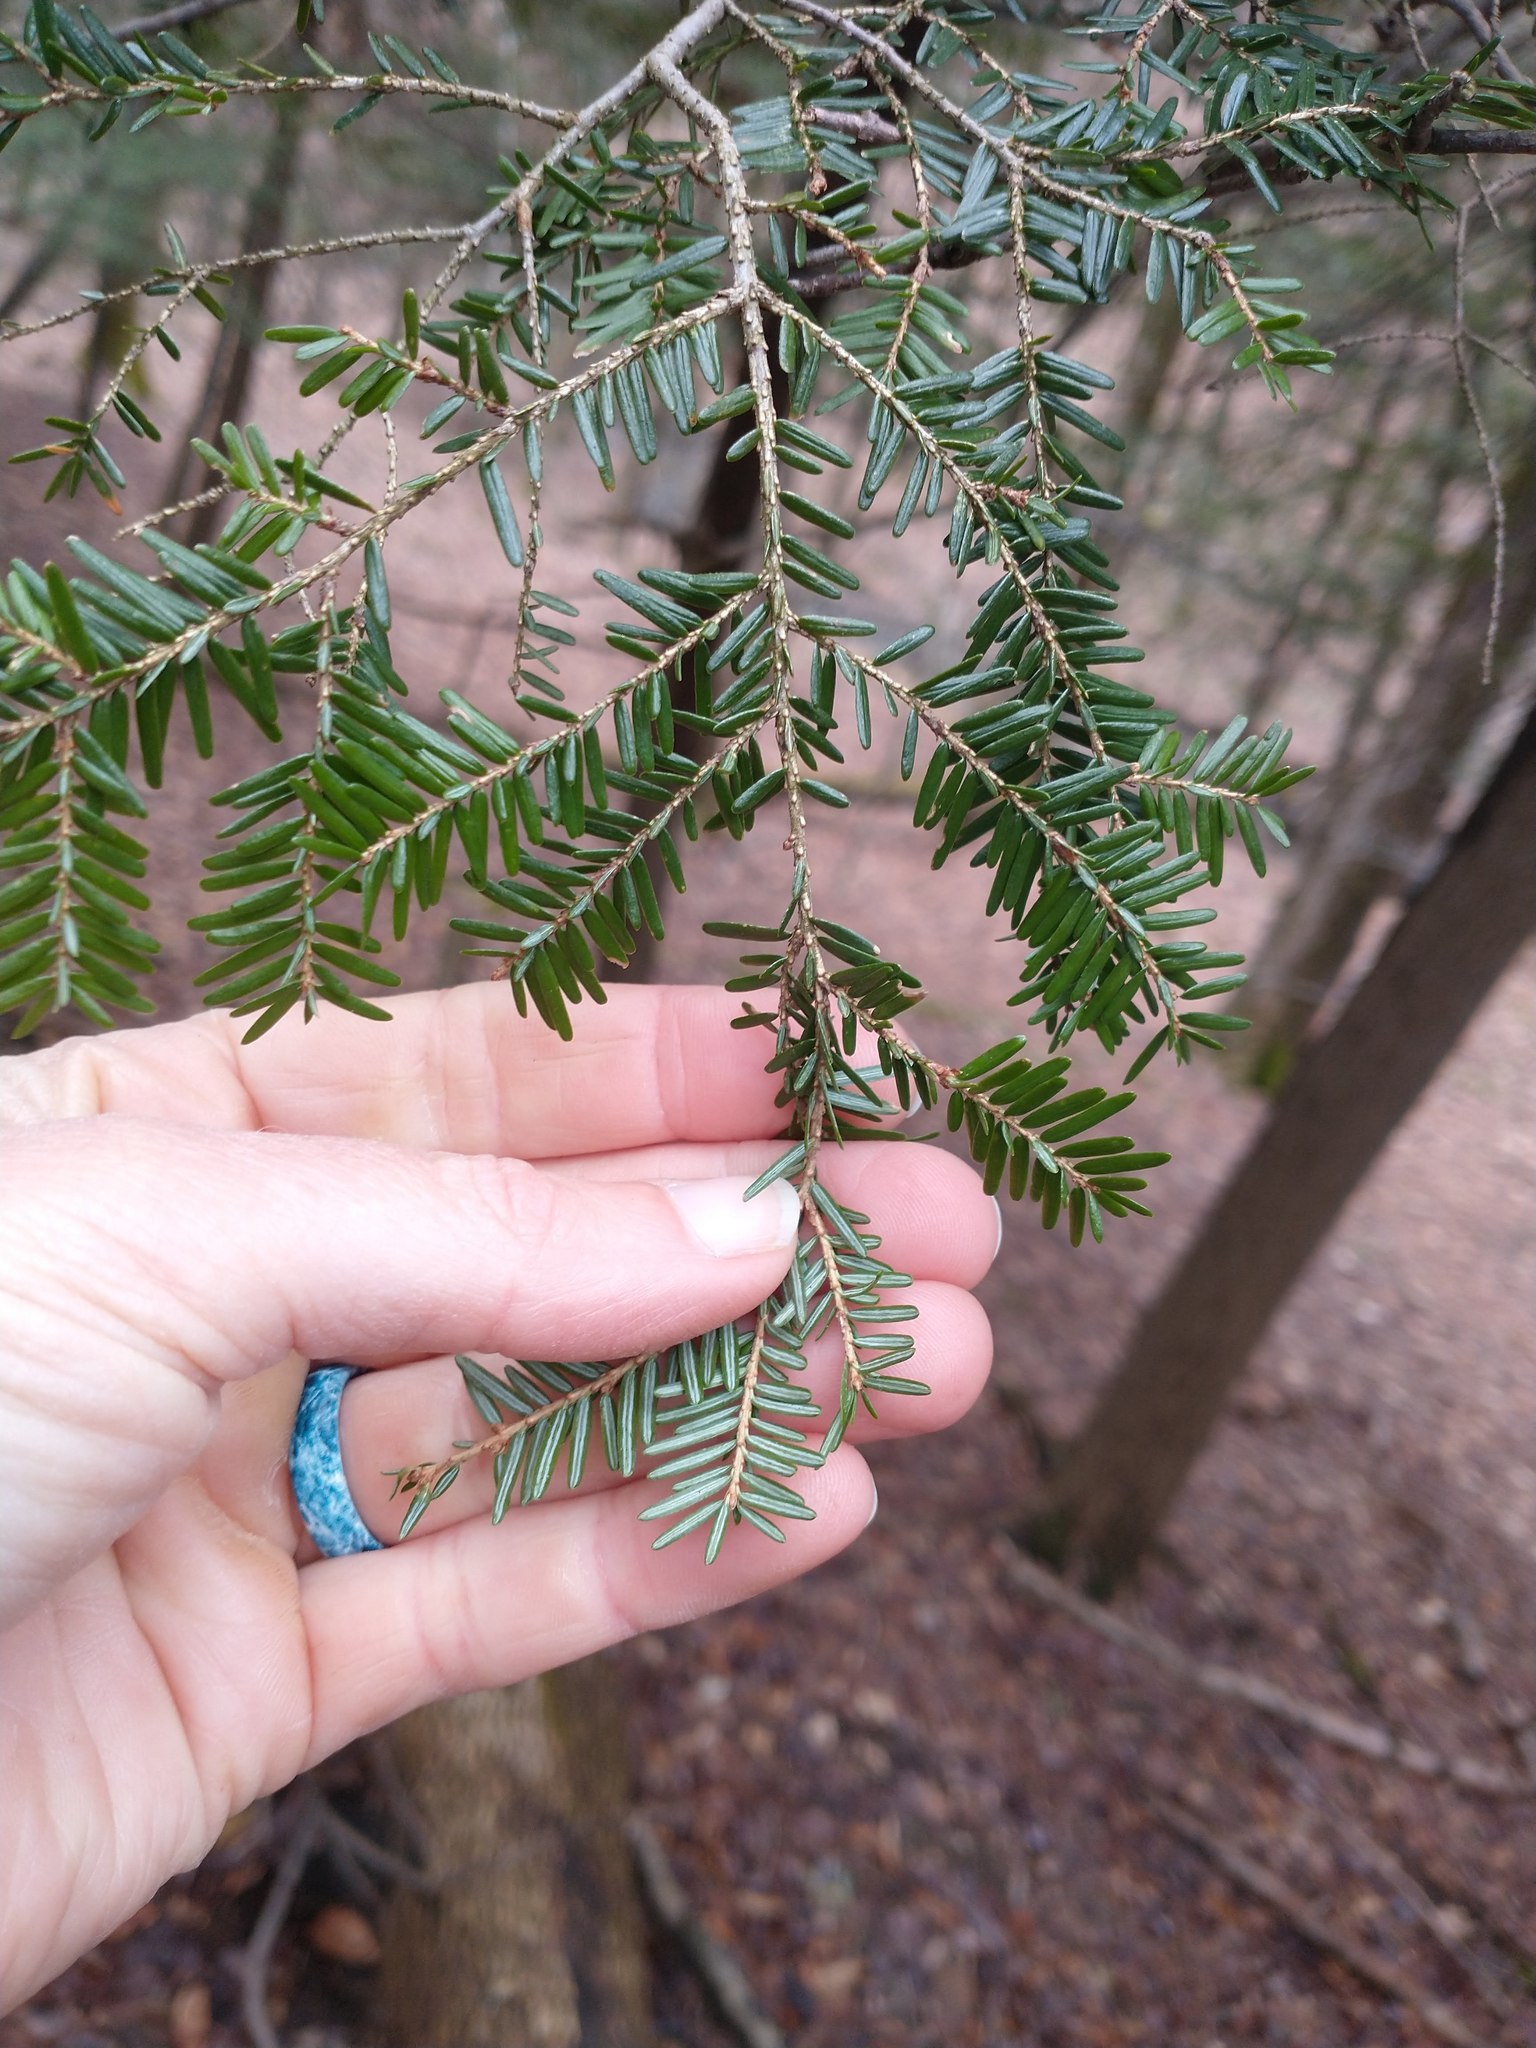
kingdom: Plantae
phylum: Tracheophyta
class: Pinopsida
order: Pinales
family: Pinaceae
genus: Tsuga
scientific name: Tsuga canadensis
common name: Eastern hemlock
